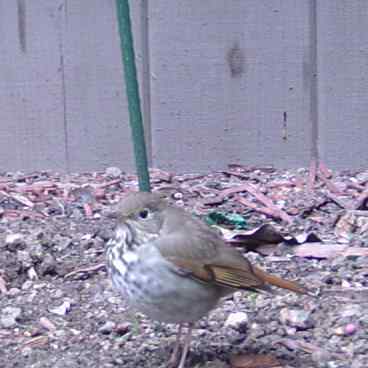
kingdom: Animalia
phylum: Chordata
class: Aves
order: Passeriformes
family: Turdidae
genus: Catharus
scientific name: Catharus guttatus
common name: Hermit thrush
